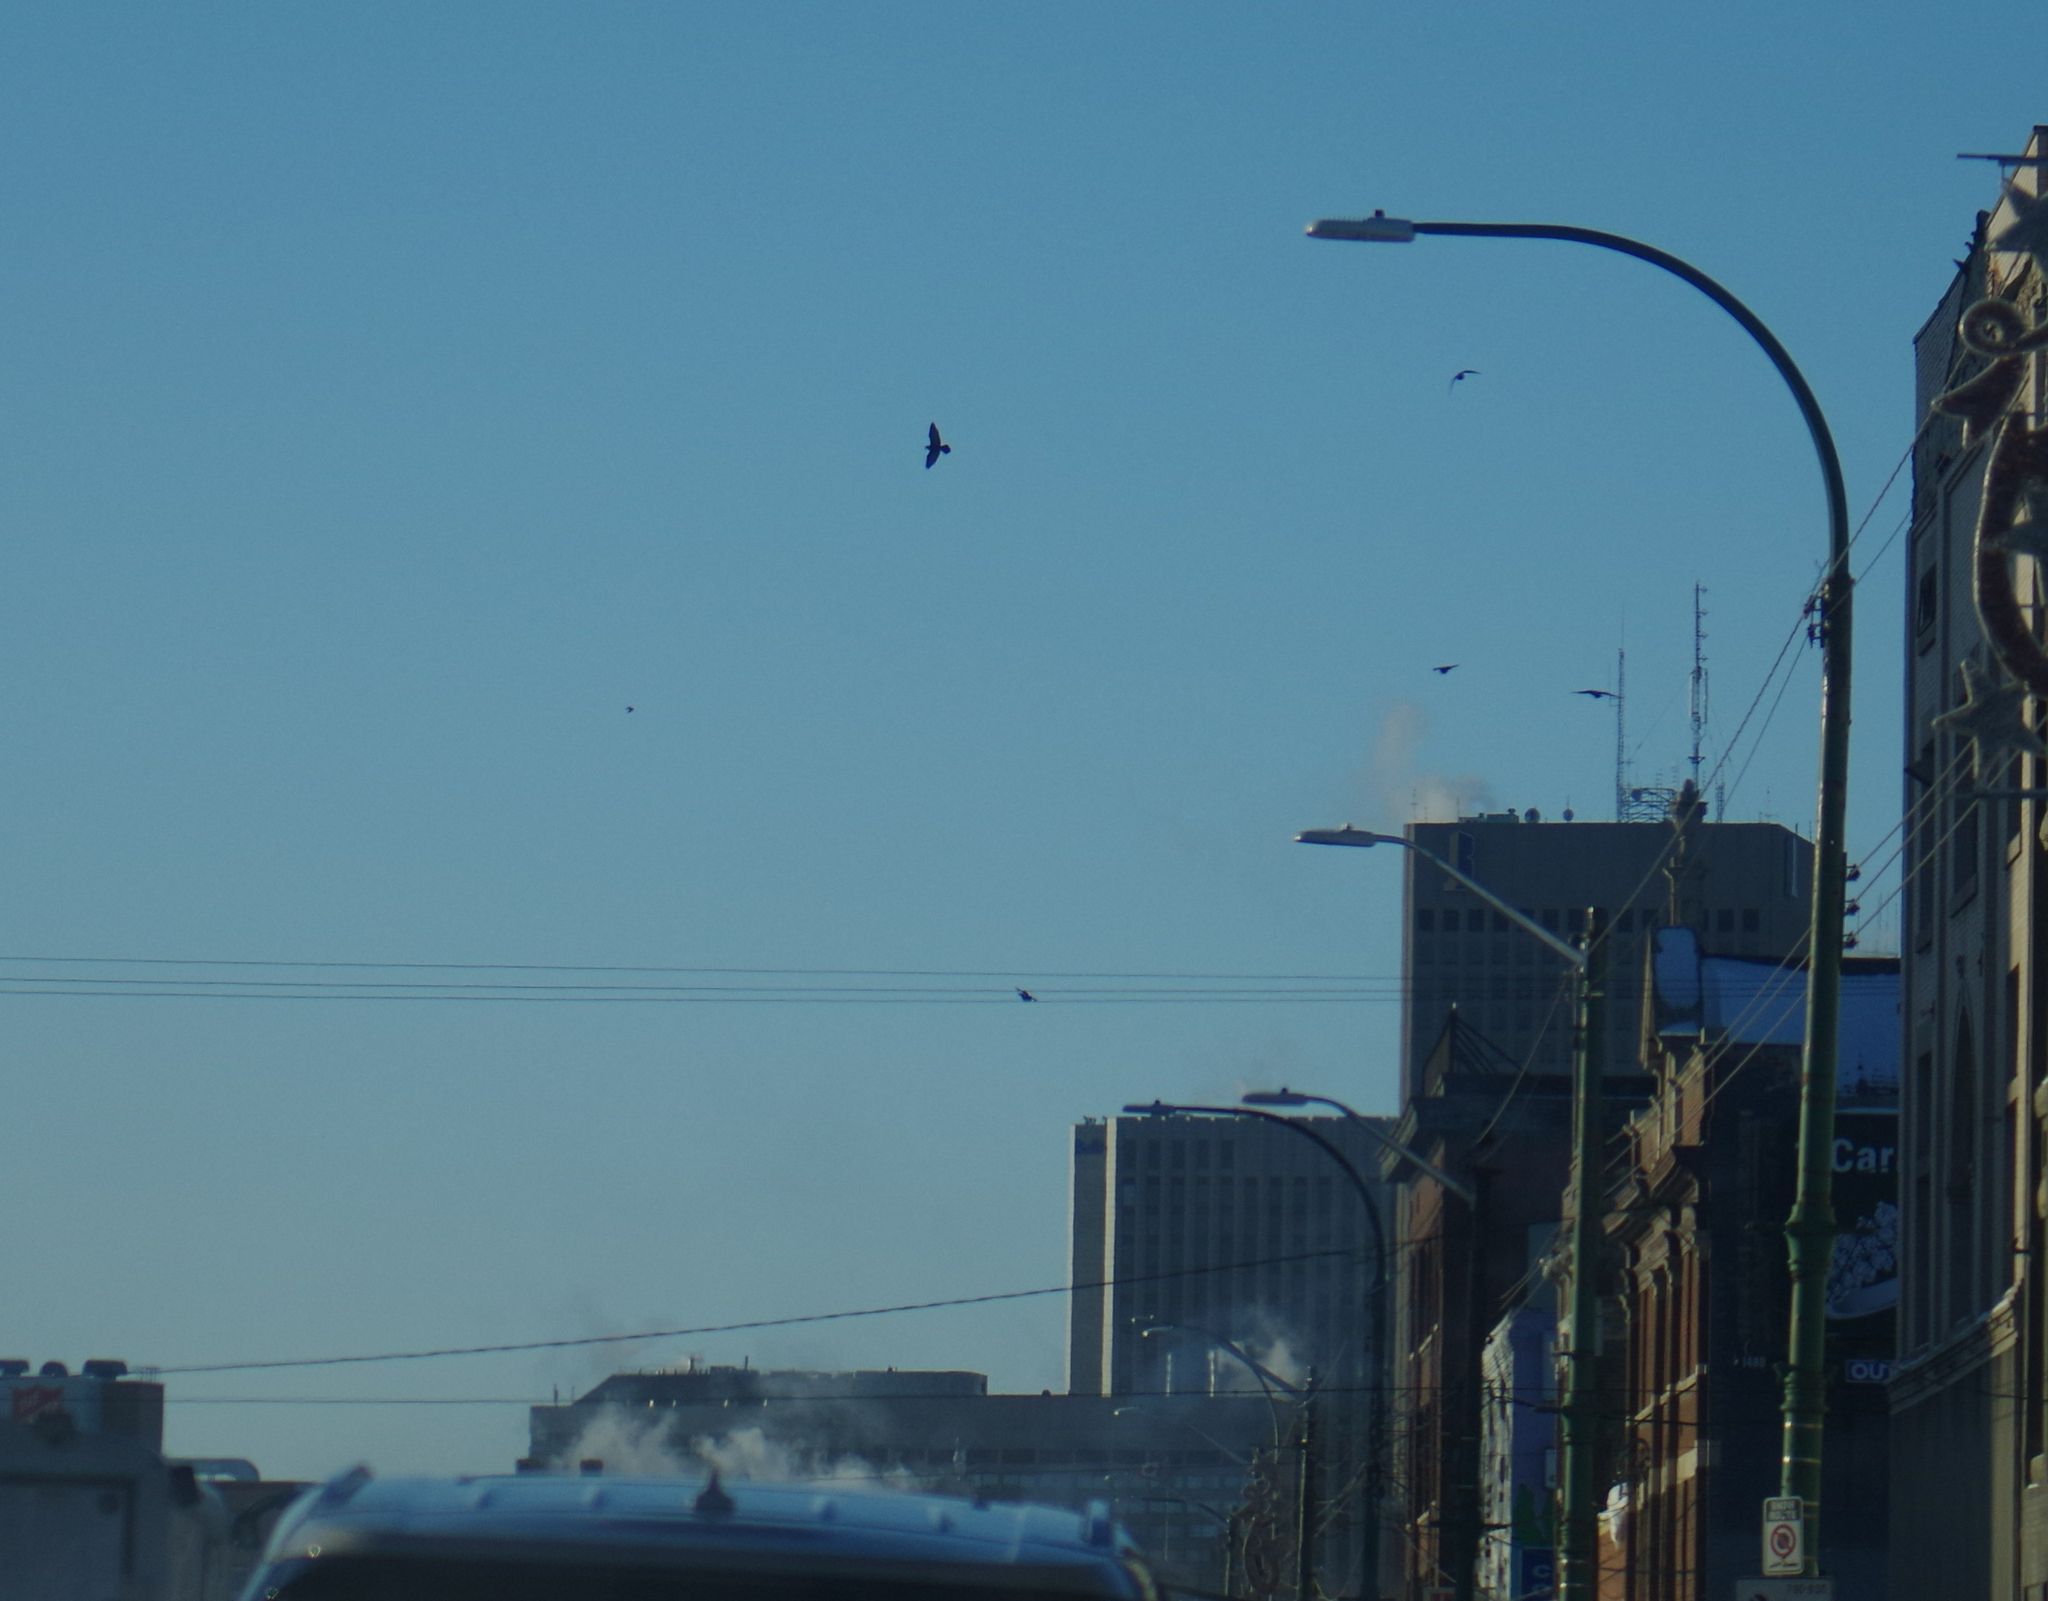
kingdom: Animalia
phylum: Chordata
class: Aves
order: Columbiformes
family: Columbidae
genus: Columba
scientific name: Columba livia
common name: Rock pigeon
